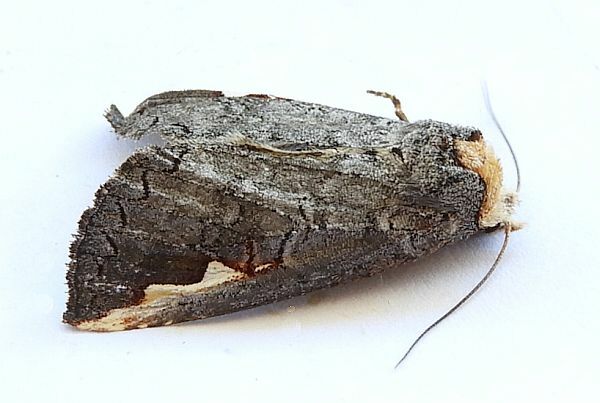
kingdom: Animalia
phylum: Arthropoda
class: Insecta
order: Lepidoptera
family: Notodontidae
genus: Symmerista
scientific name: Symmerista zacualpana
